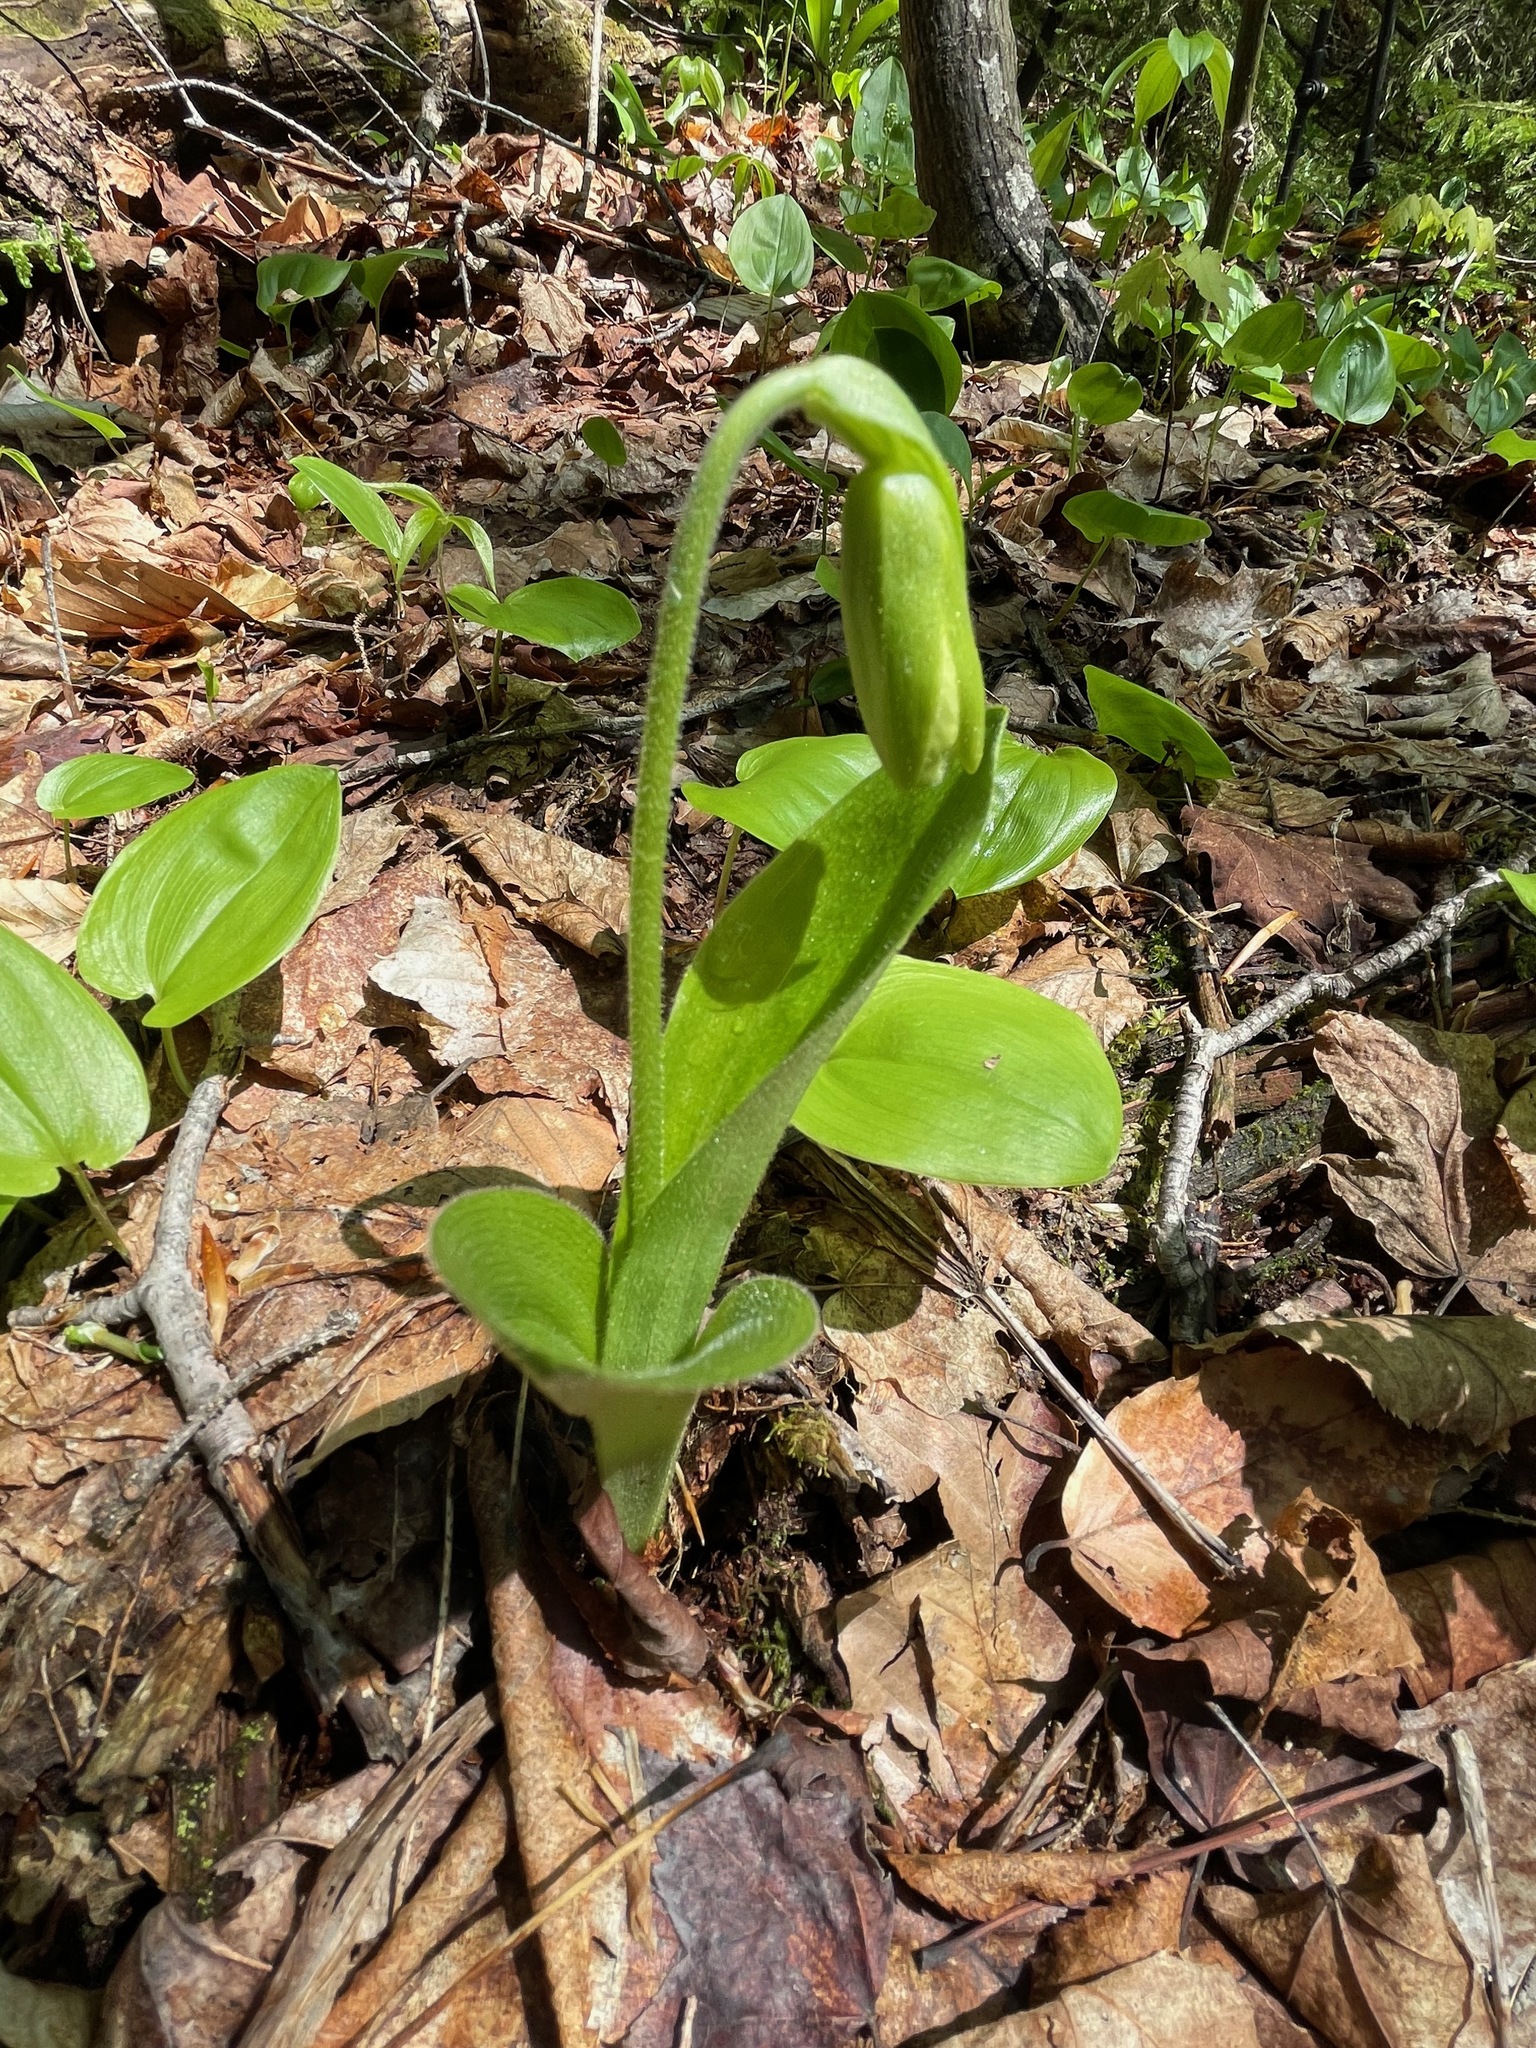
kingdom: Plantae
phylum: Tracheophyta
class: Liliopsida
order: Asparagales
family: Orchidaceae
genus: Cypripedium
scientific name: Cypripedium acaule
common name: Pink lady's-slipper
